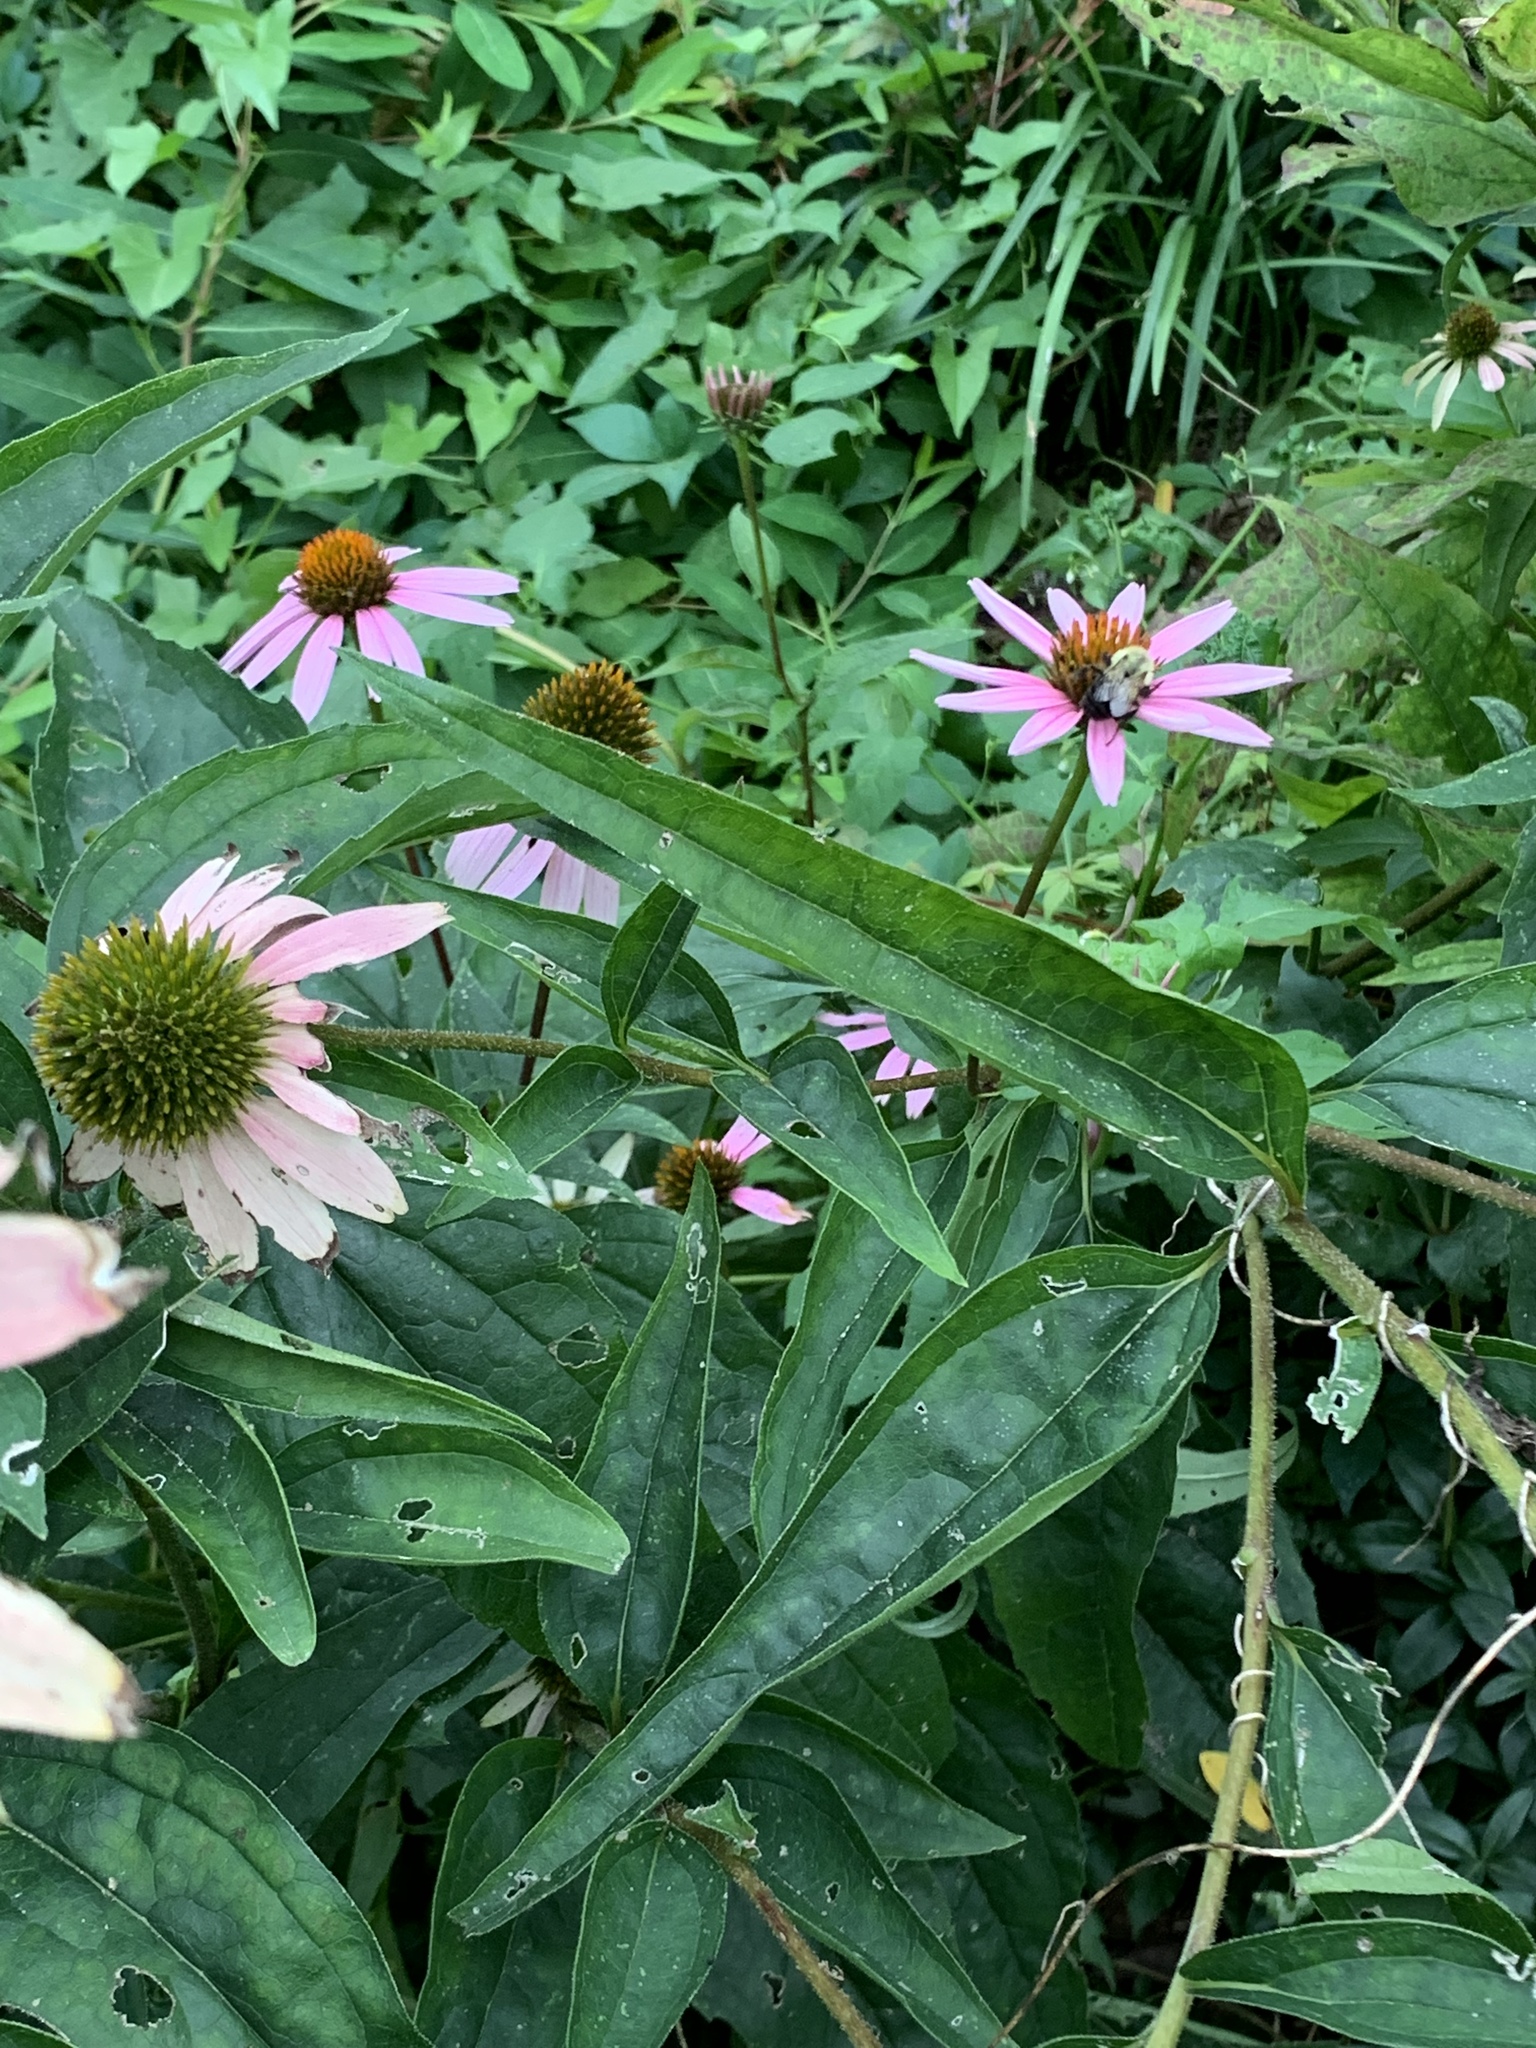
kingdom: Plantae
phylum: Tracheophyta
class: Magnoliopsida
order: Asterales
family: Asteraceae
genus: Echinacea
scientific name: Echinacea purpurea
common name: Broad-leaved purple coneflower
